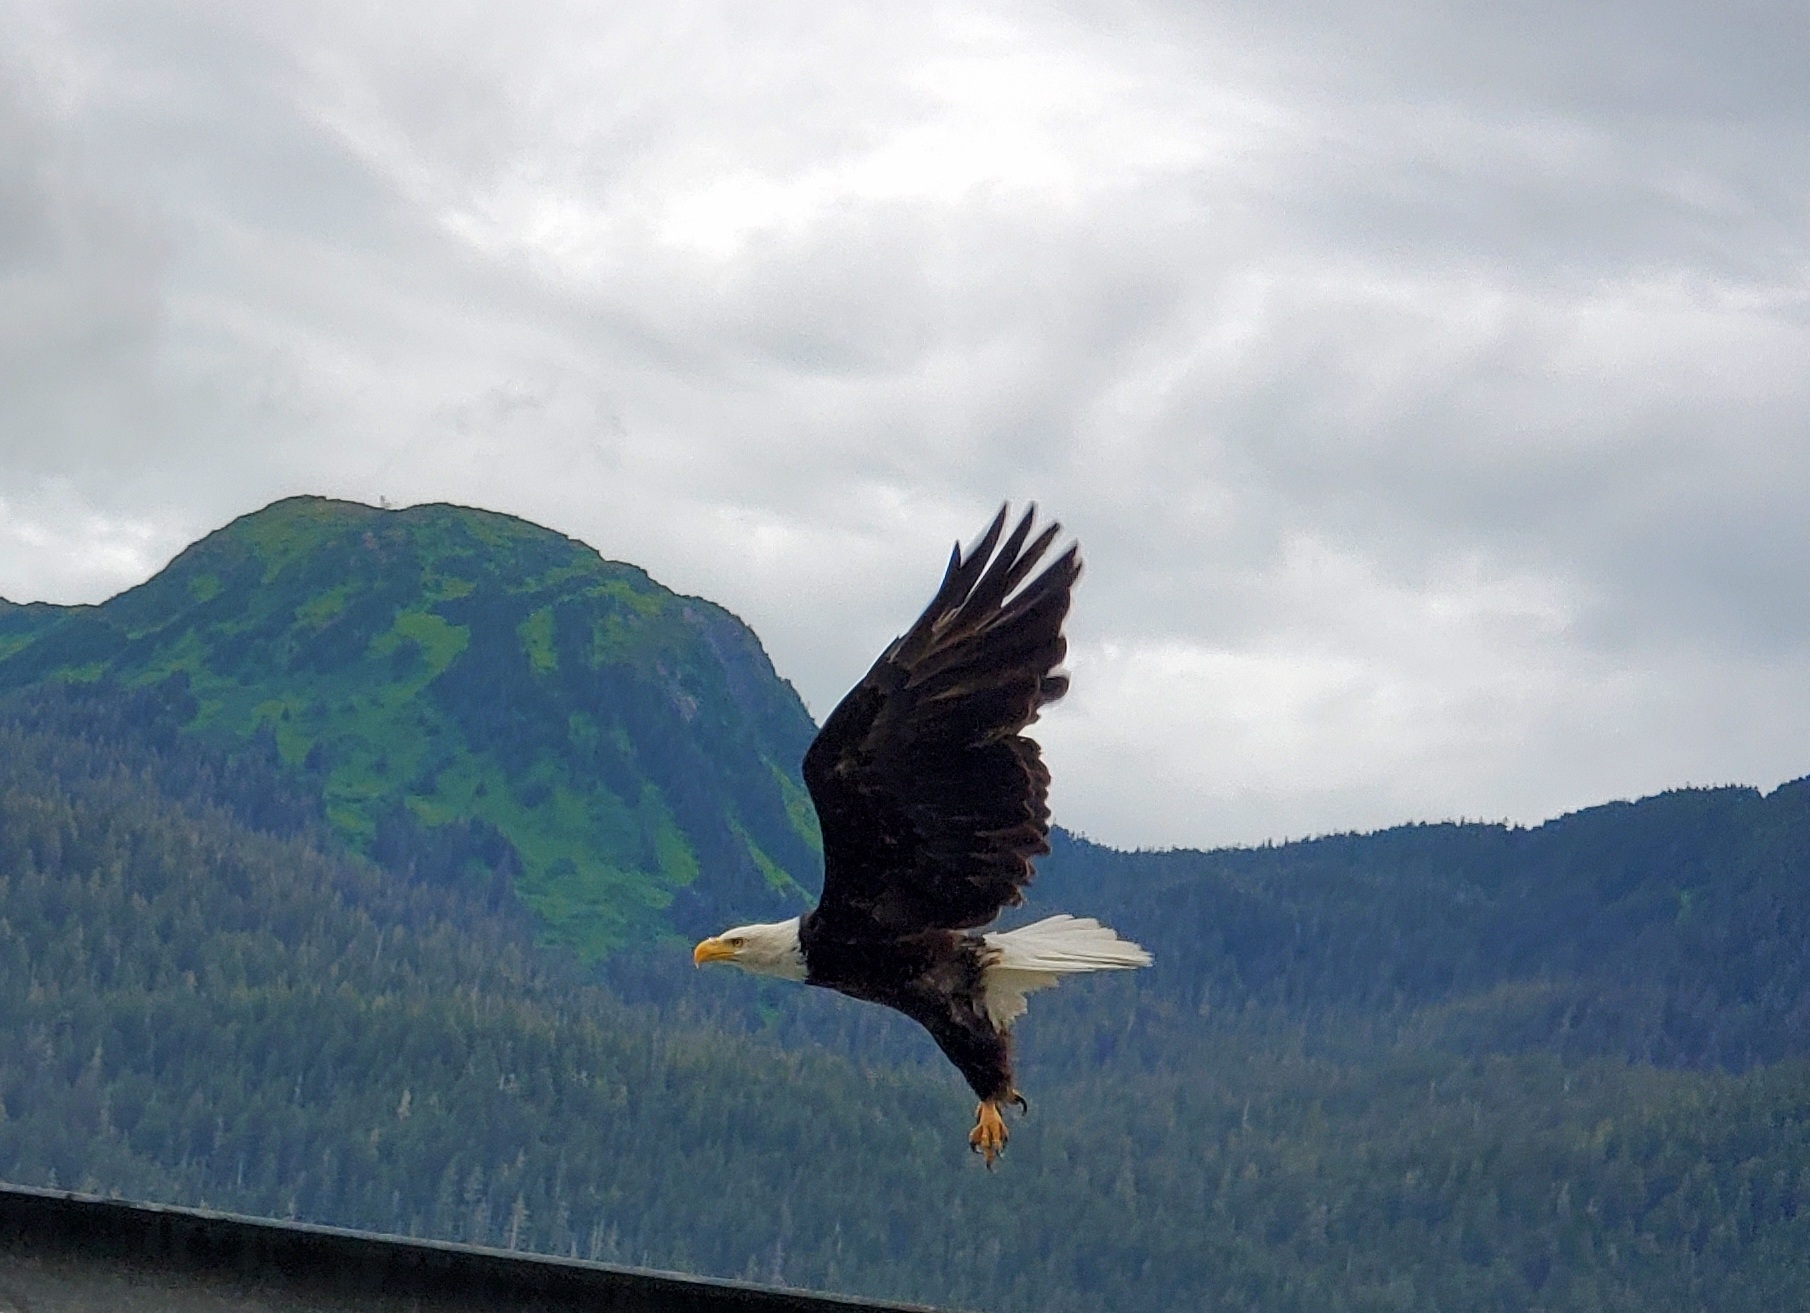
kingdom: Animalia
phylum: Chordata
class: Aves
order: Accipitriformes
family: Accipitridae
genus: Haliaeetus
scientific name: Haliaeetus leucocephalus
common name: Bald eagle
